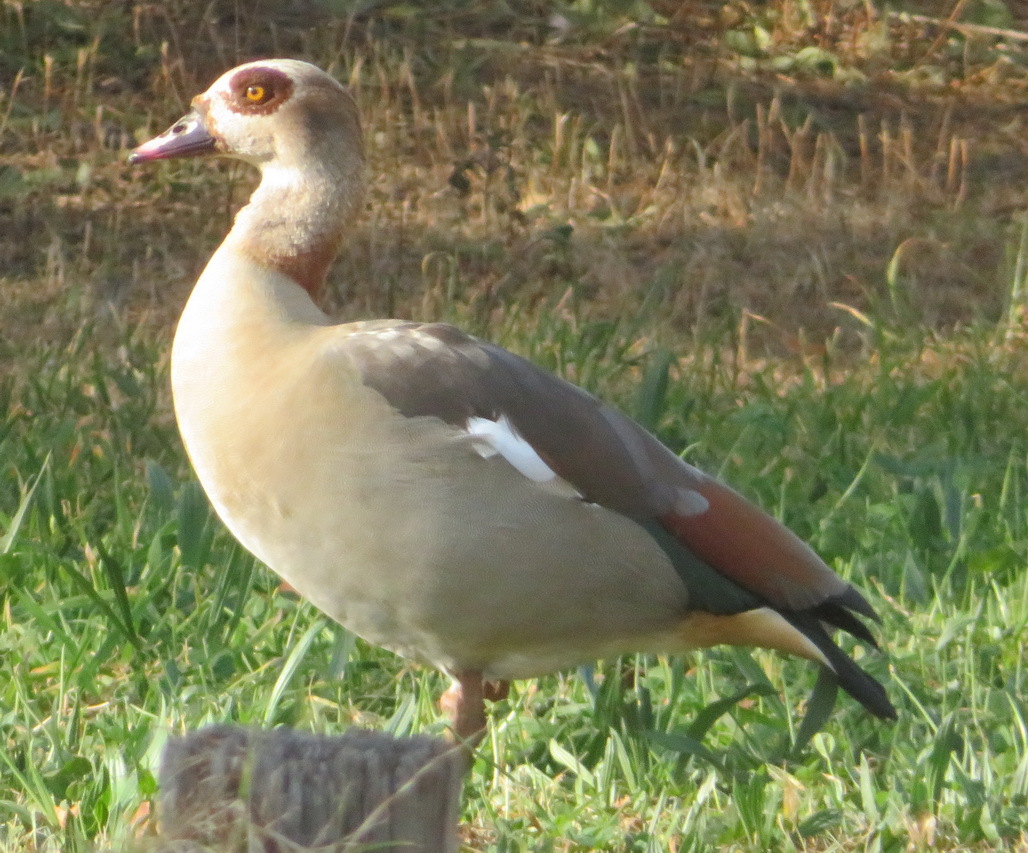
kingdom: Animalia
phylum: Chordata
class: Aves
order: Anseriformes
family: Anatidae
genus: Alopochen
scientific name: Alopochen aegyptiaca
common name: Egyptian goose
